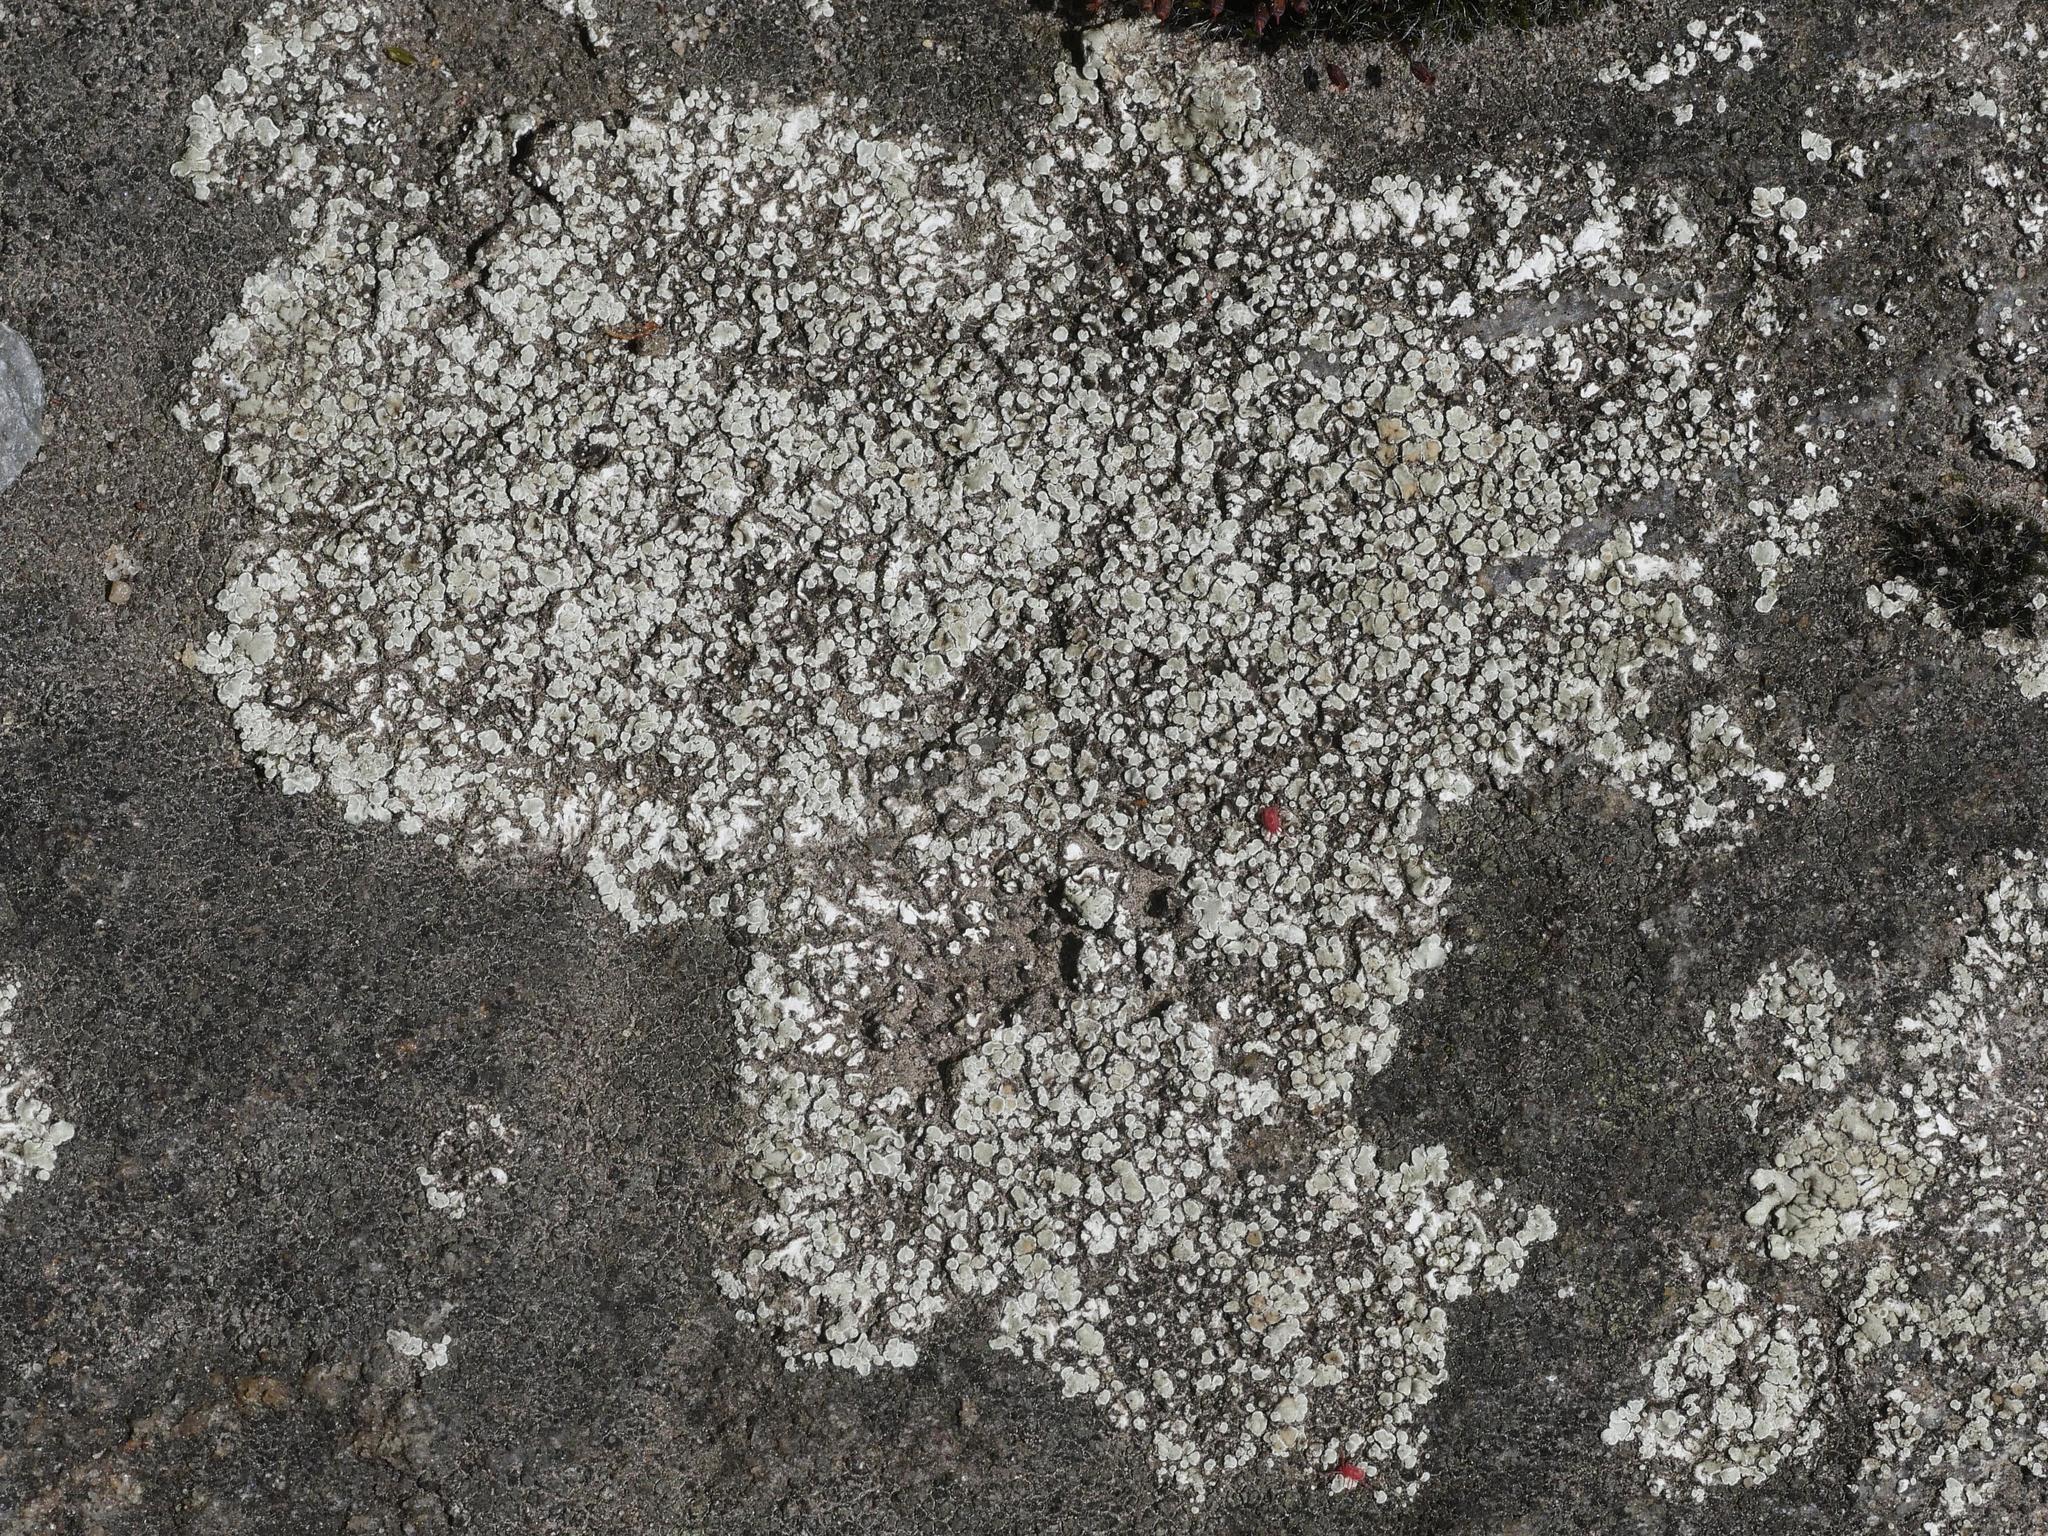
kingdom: Fungi
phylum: Ascomycota
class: Lecanoromycetes
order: Lecanorales
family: Lecanoraceae
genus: Protoparmeliopsis
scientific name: Protoparmeliopsis muralis
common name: Stonewall rim lichen
